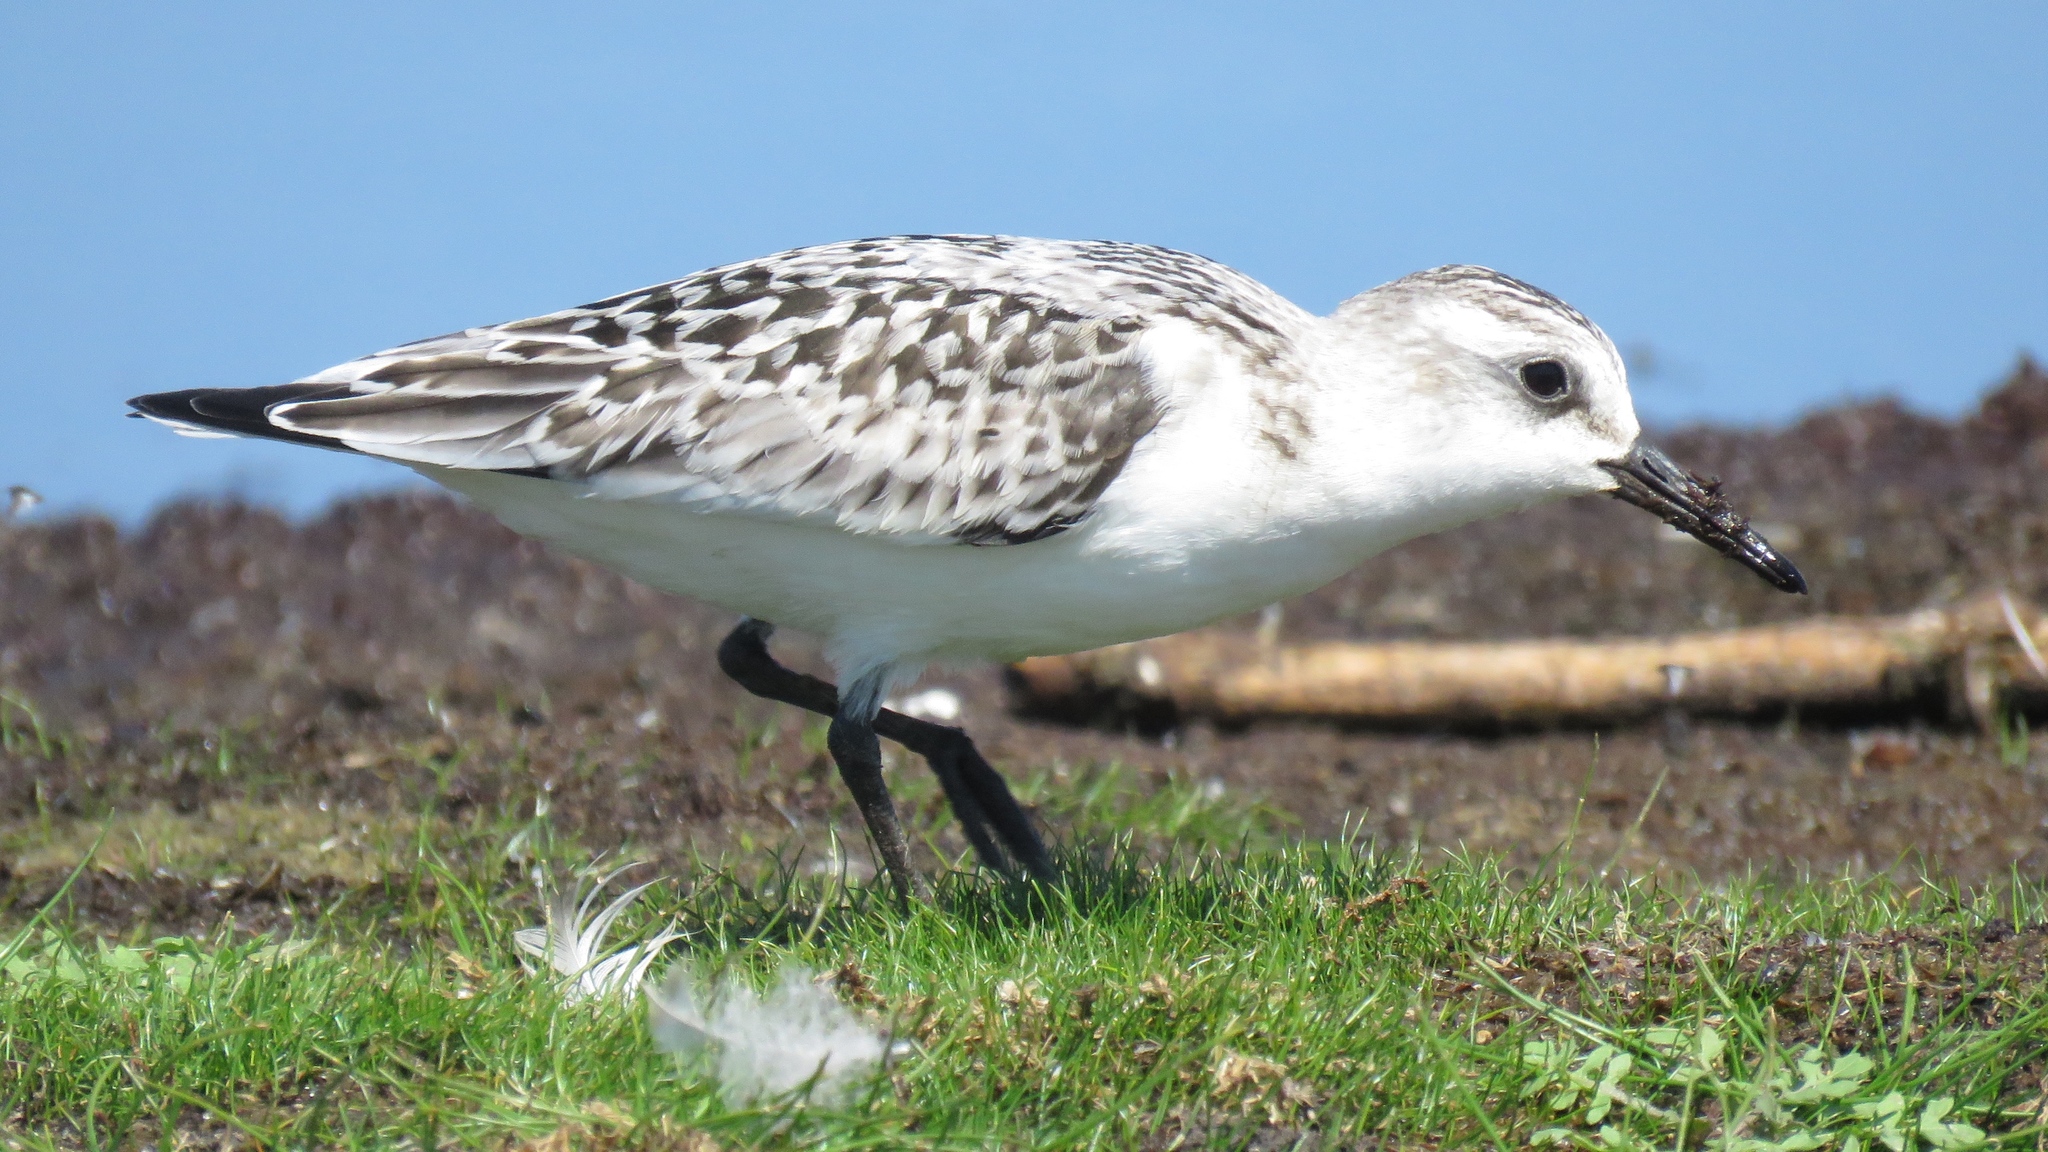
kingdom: Animalia
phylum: Chordata
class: Aves
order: Charadriiformes
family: Scolopacidae
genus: Calidris
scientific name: Calidris alba
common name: Sanderling
